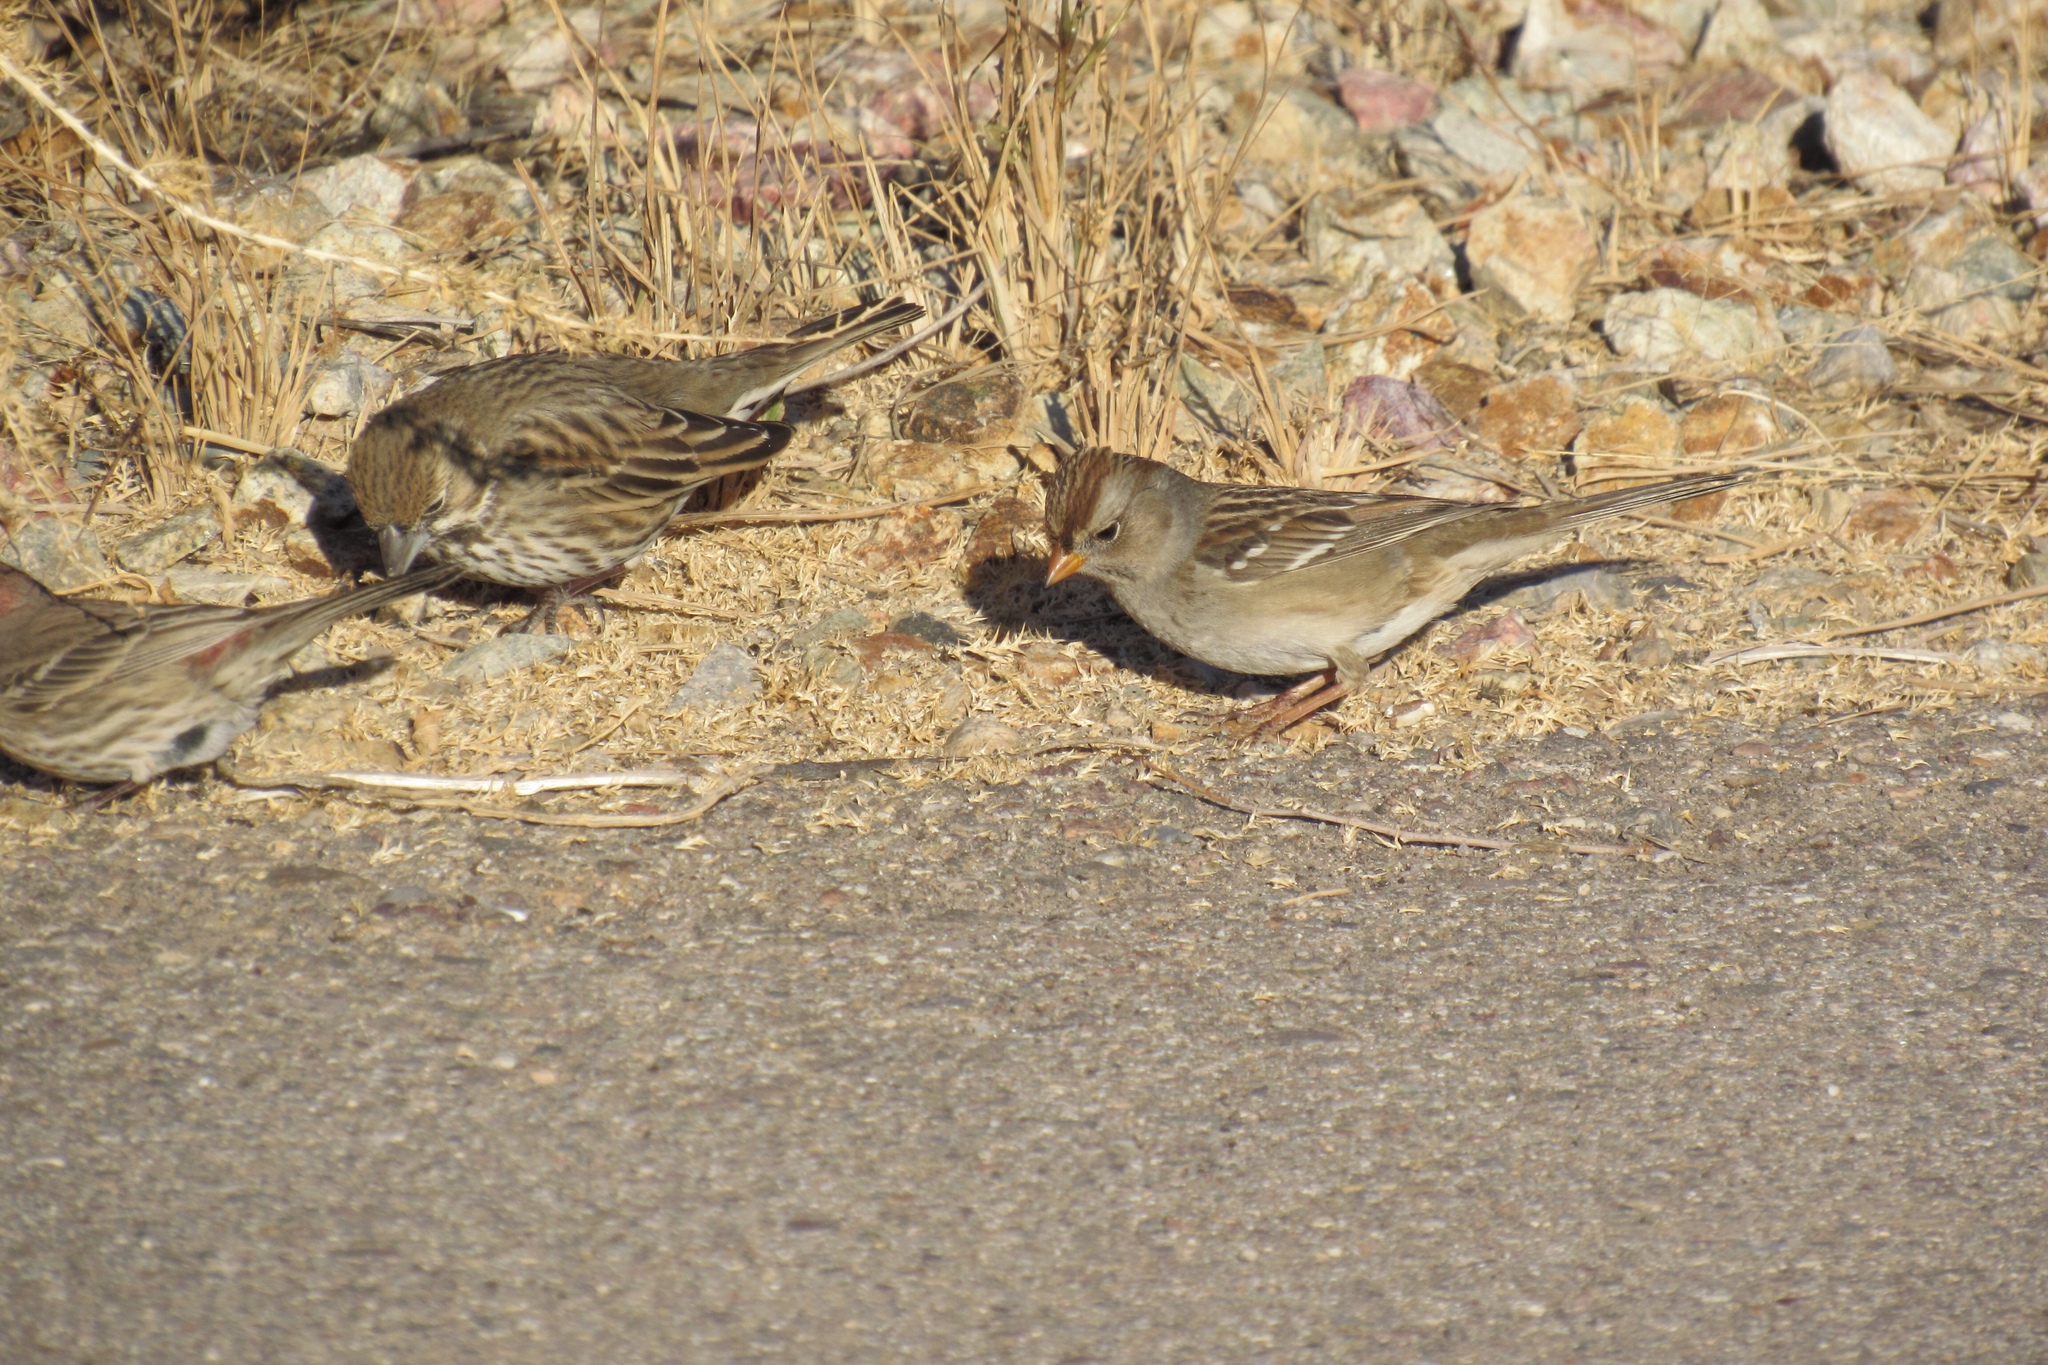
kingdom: Animalia
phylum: Chordata
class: Aves
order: Passeriformes
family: Passerellidae
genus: Zonotrichia
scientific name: Zonotrichia leucophrys
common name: White-crowned sparrow
